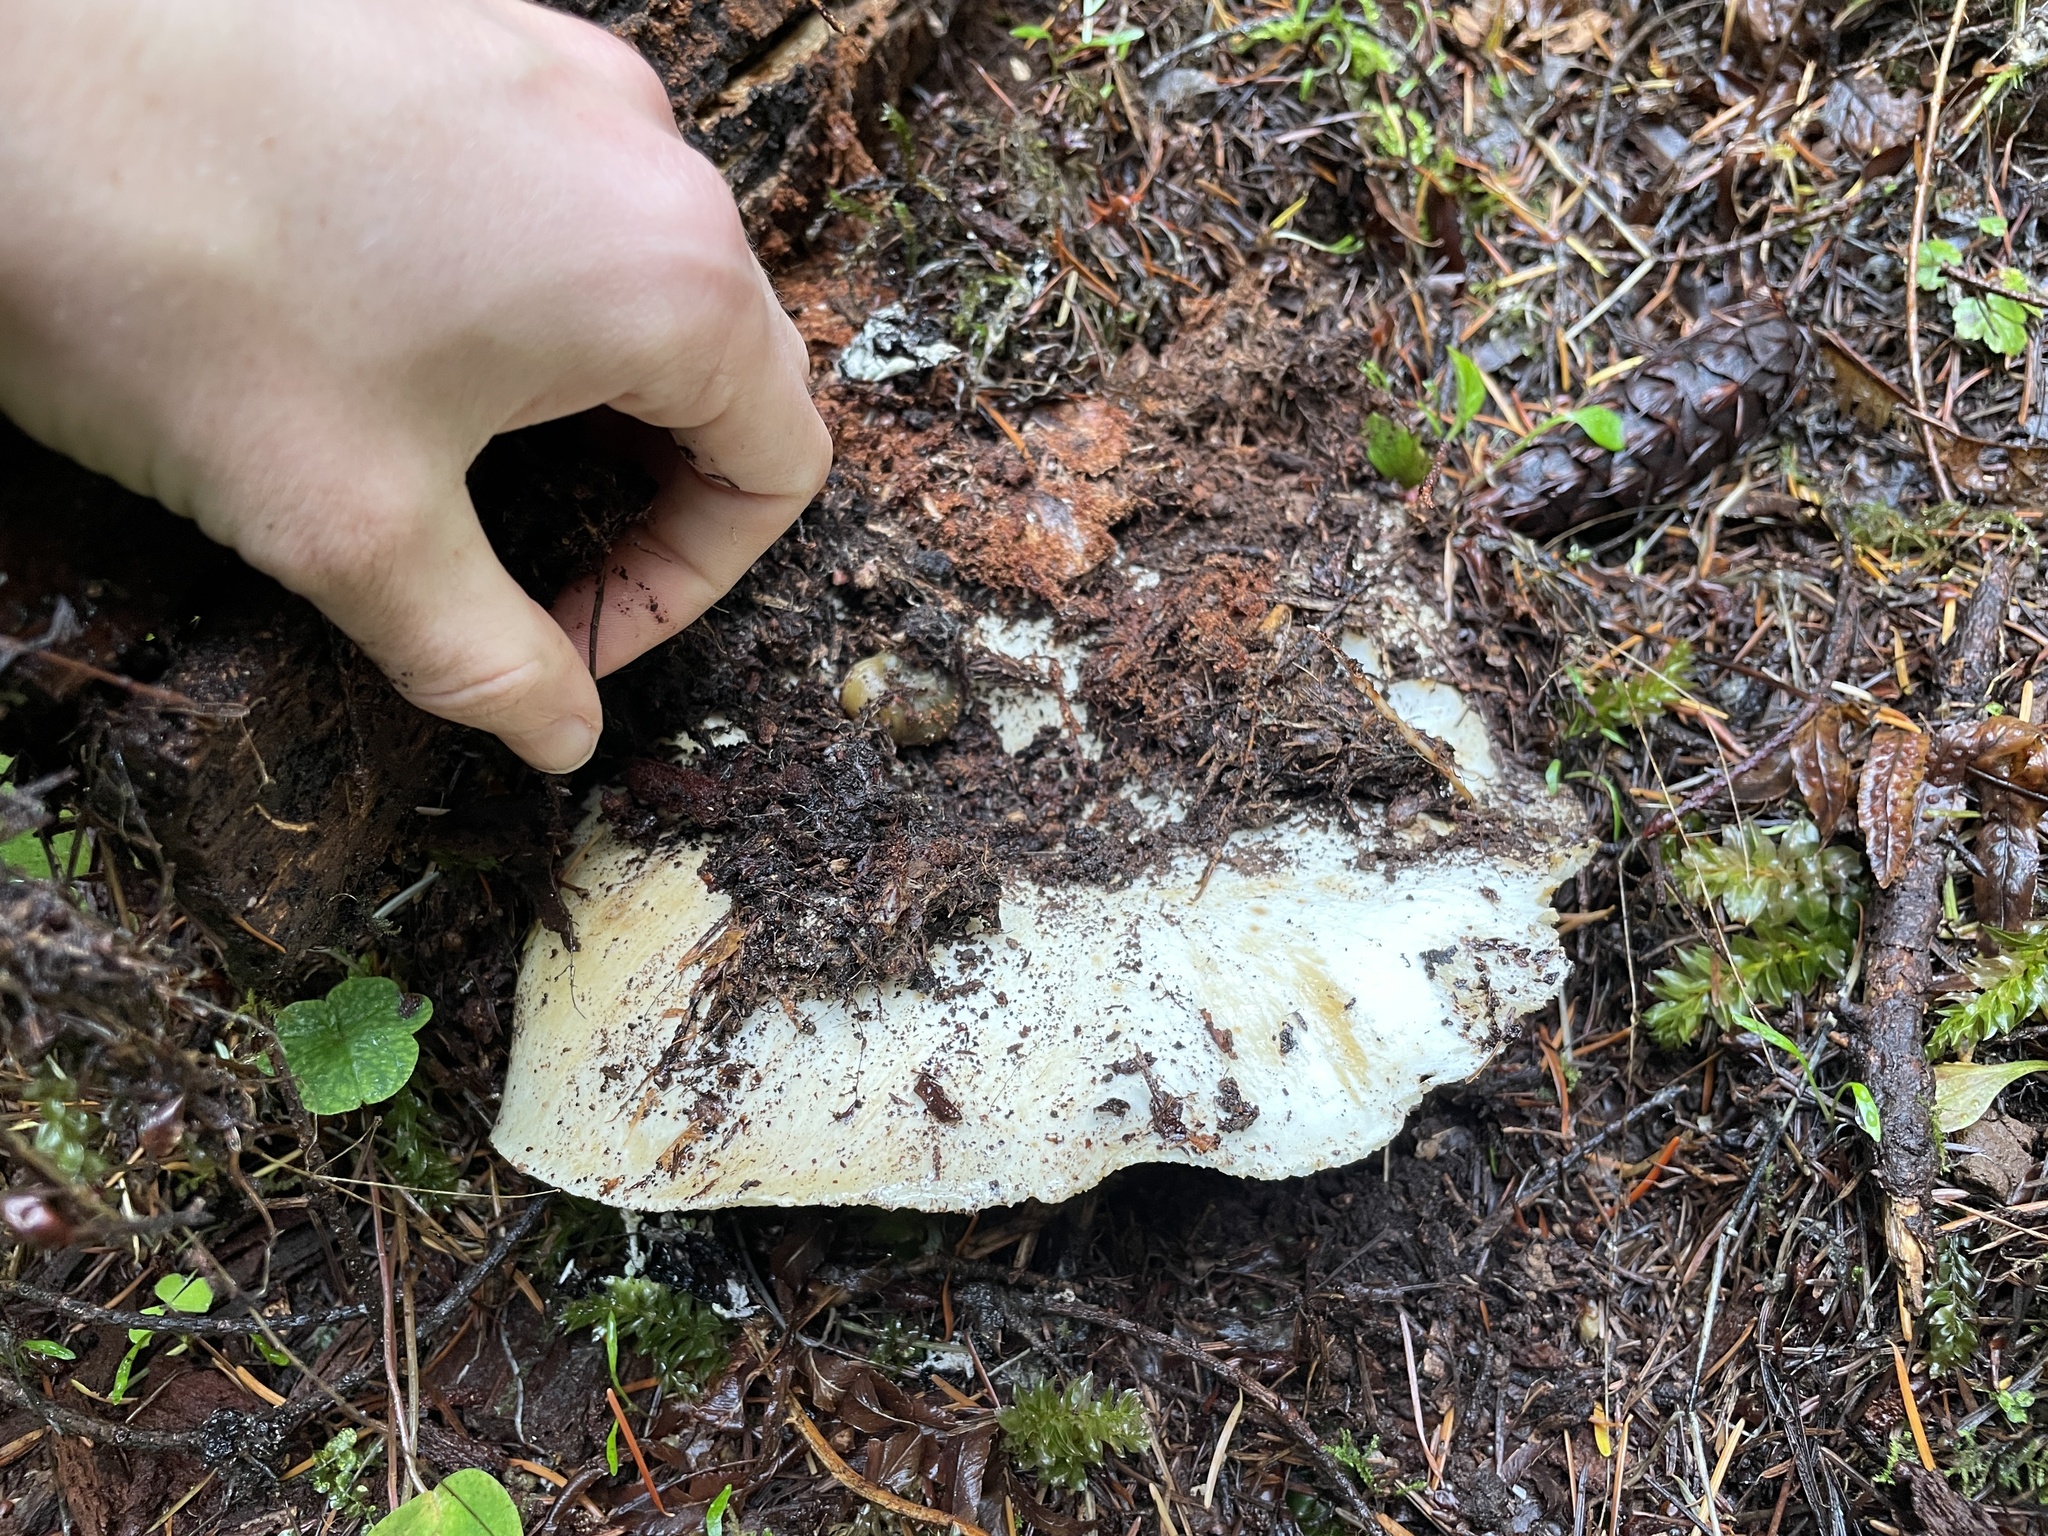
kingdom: Fungi
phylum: Basidiomycota
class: Agaricomycetes
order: Russulales
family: Russulaceae
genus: Russula
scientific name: Russula brevipes
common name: Short-stemmed russula
